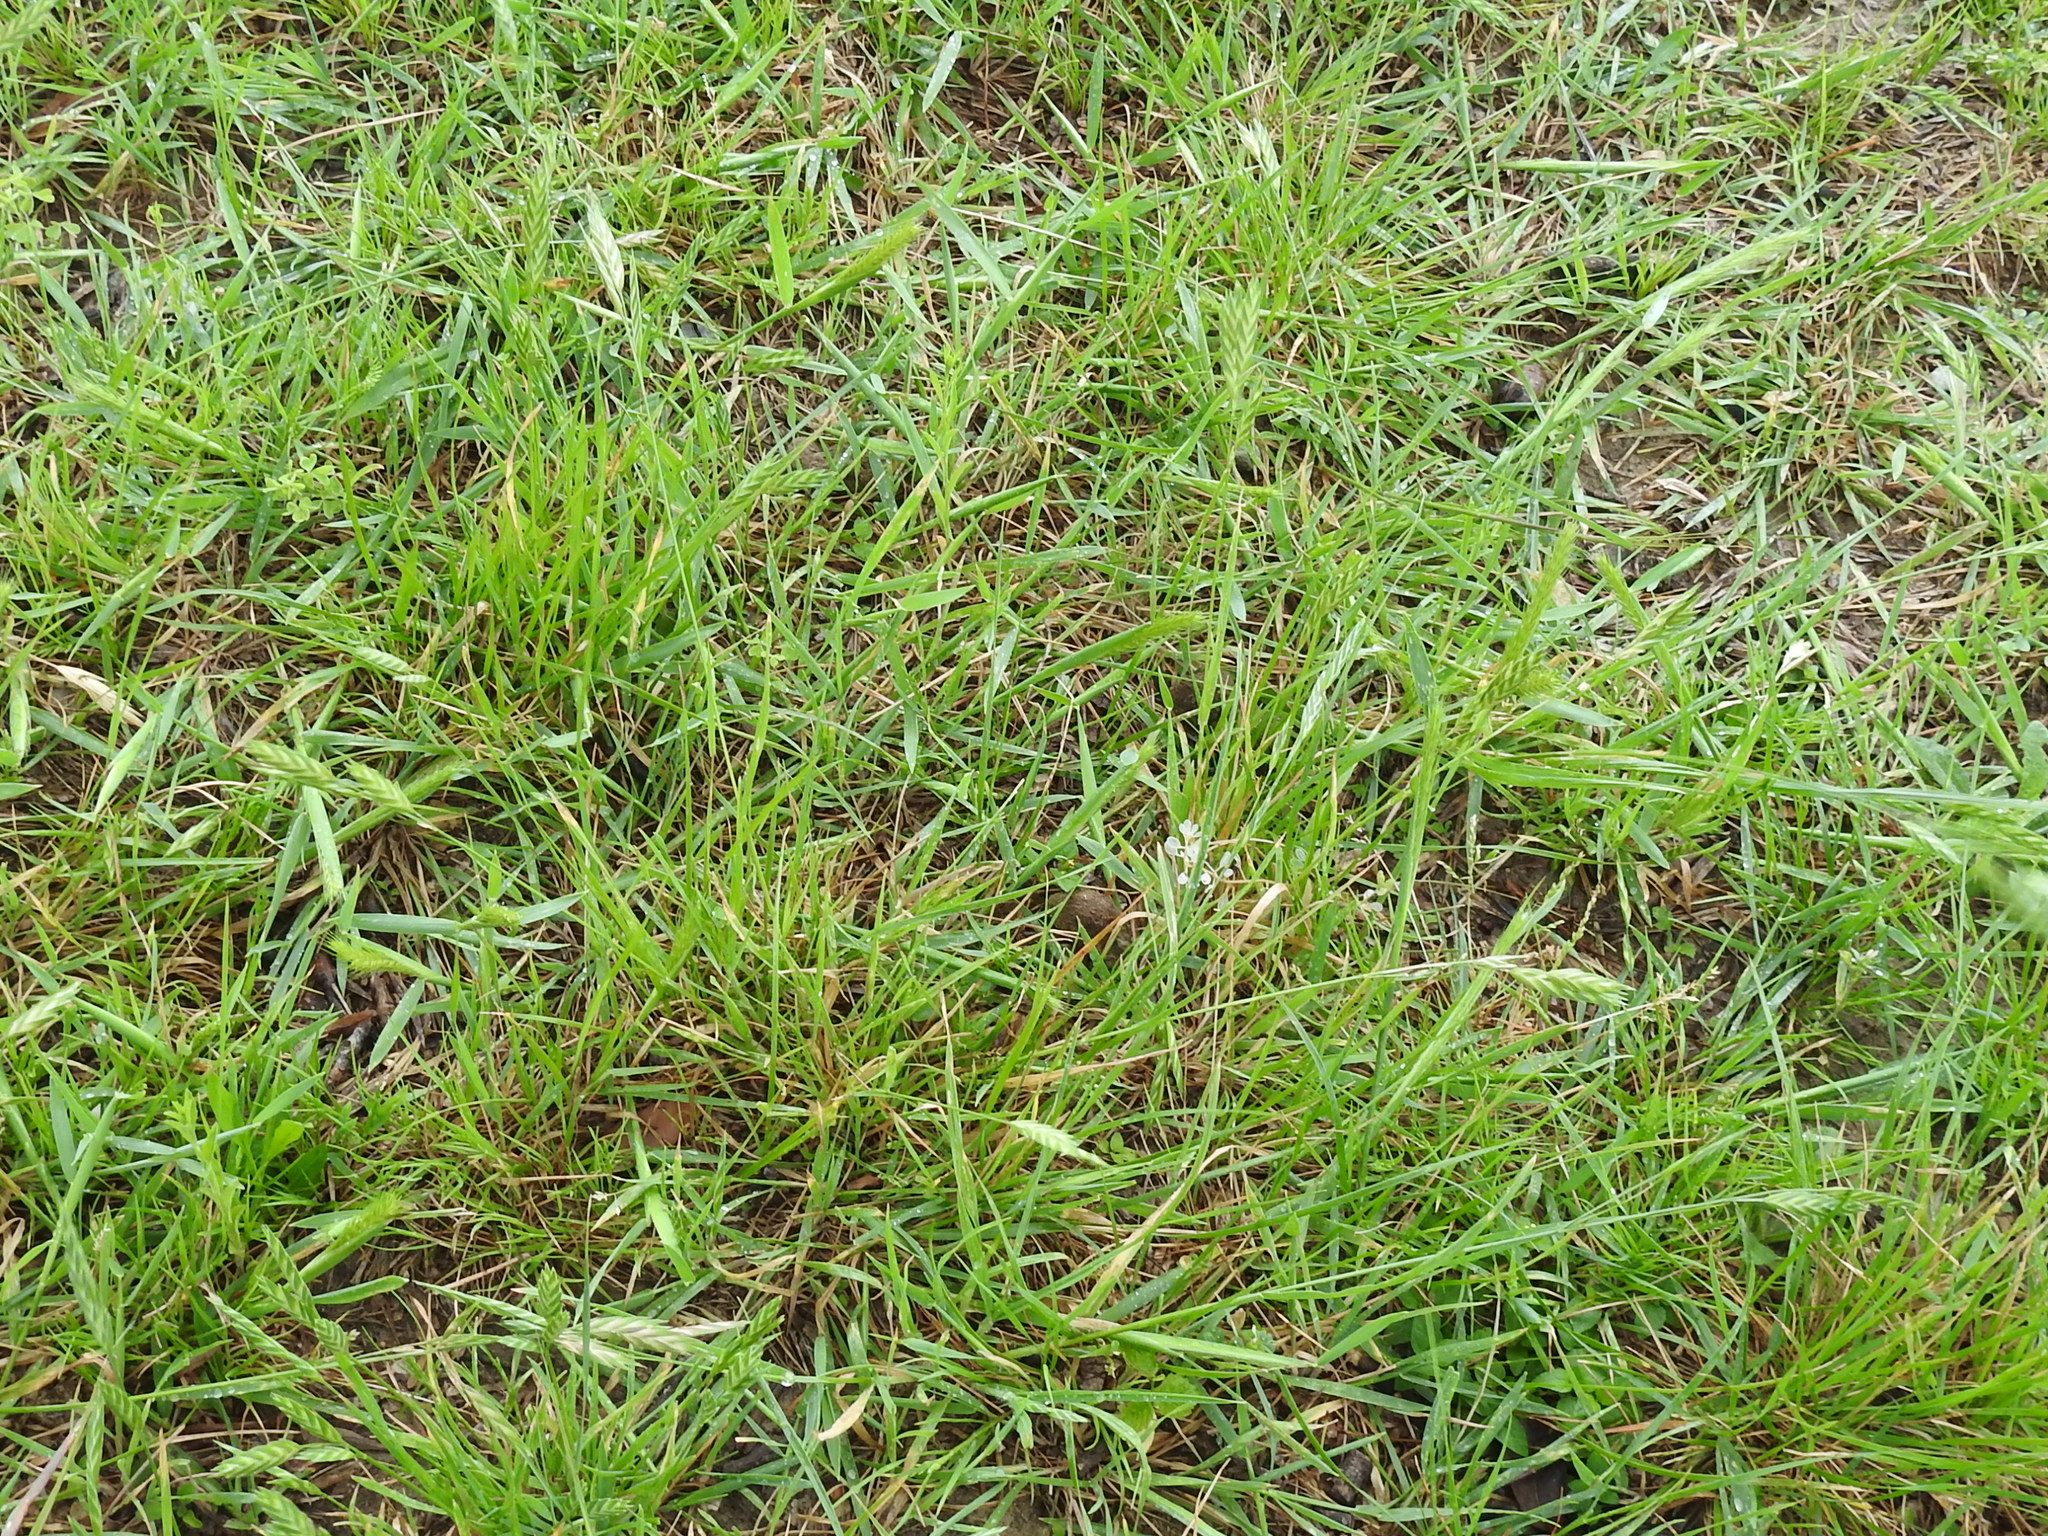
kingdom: Plantae
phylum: Tracheophyta
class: Liliopsida
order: Poales
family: Poaceae
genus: Bromus
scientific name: Bromus catharticus
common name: Rescuegrass
